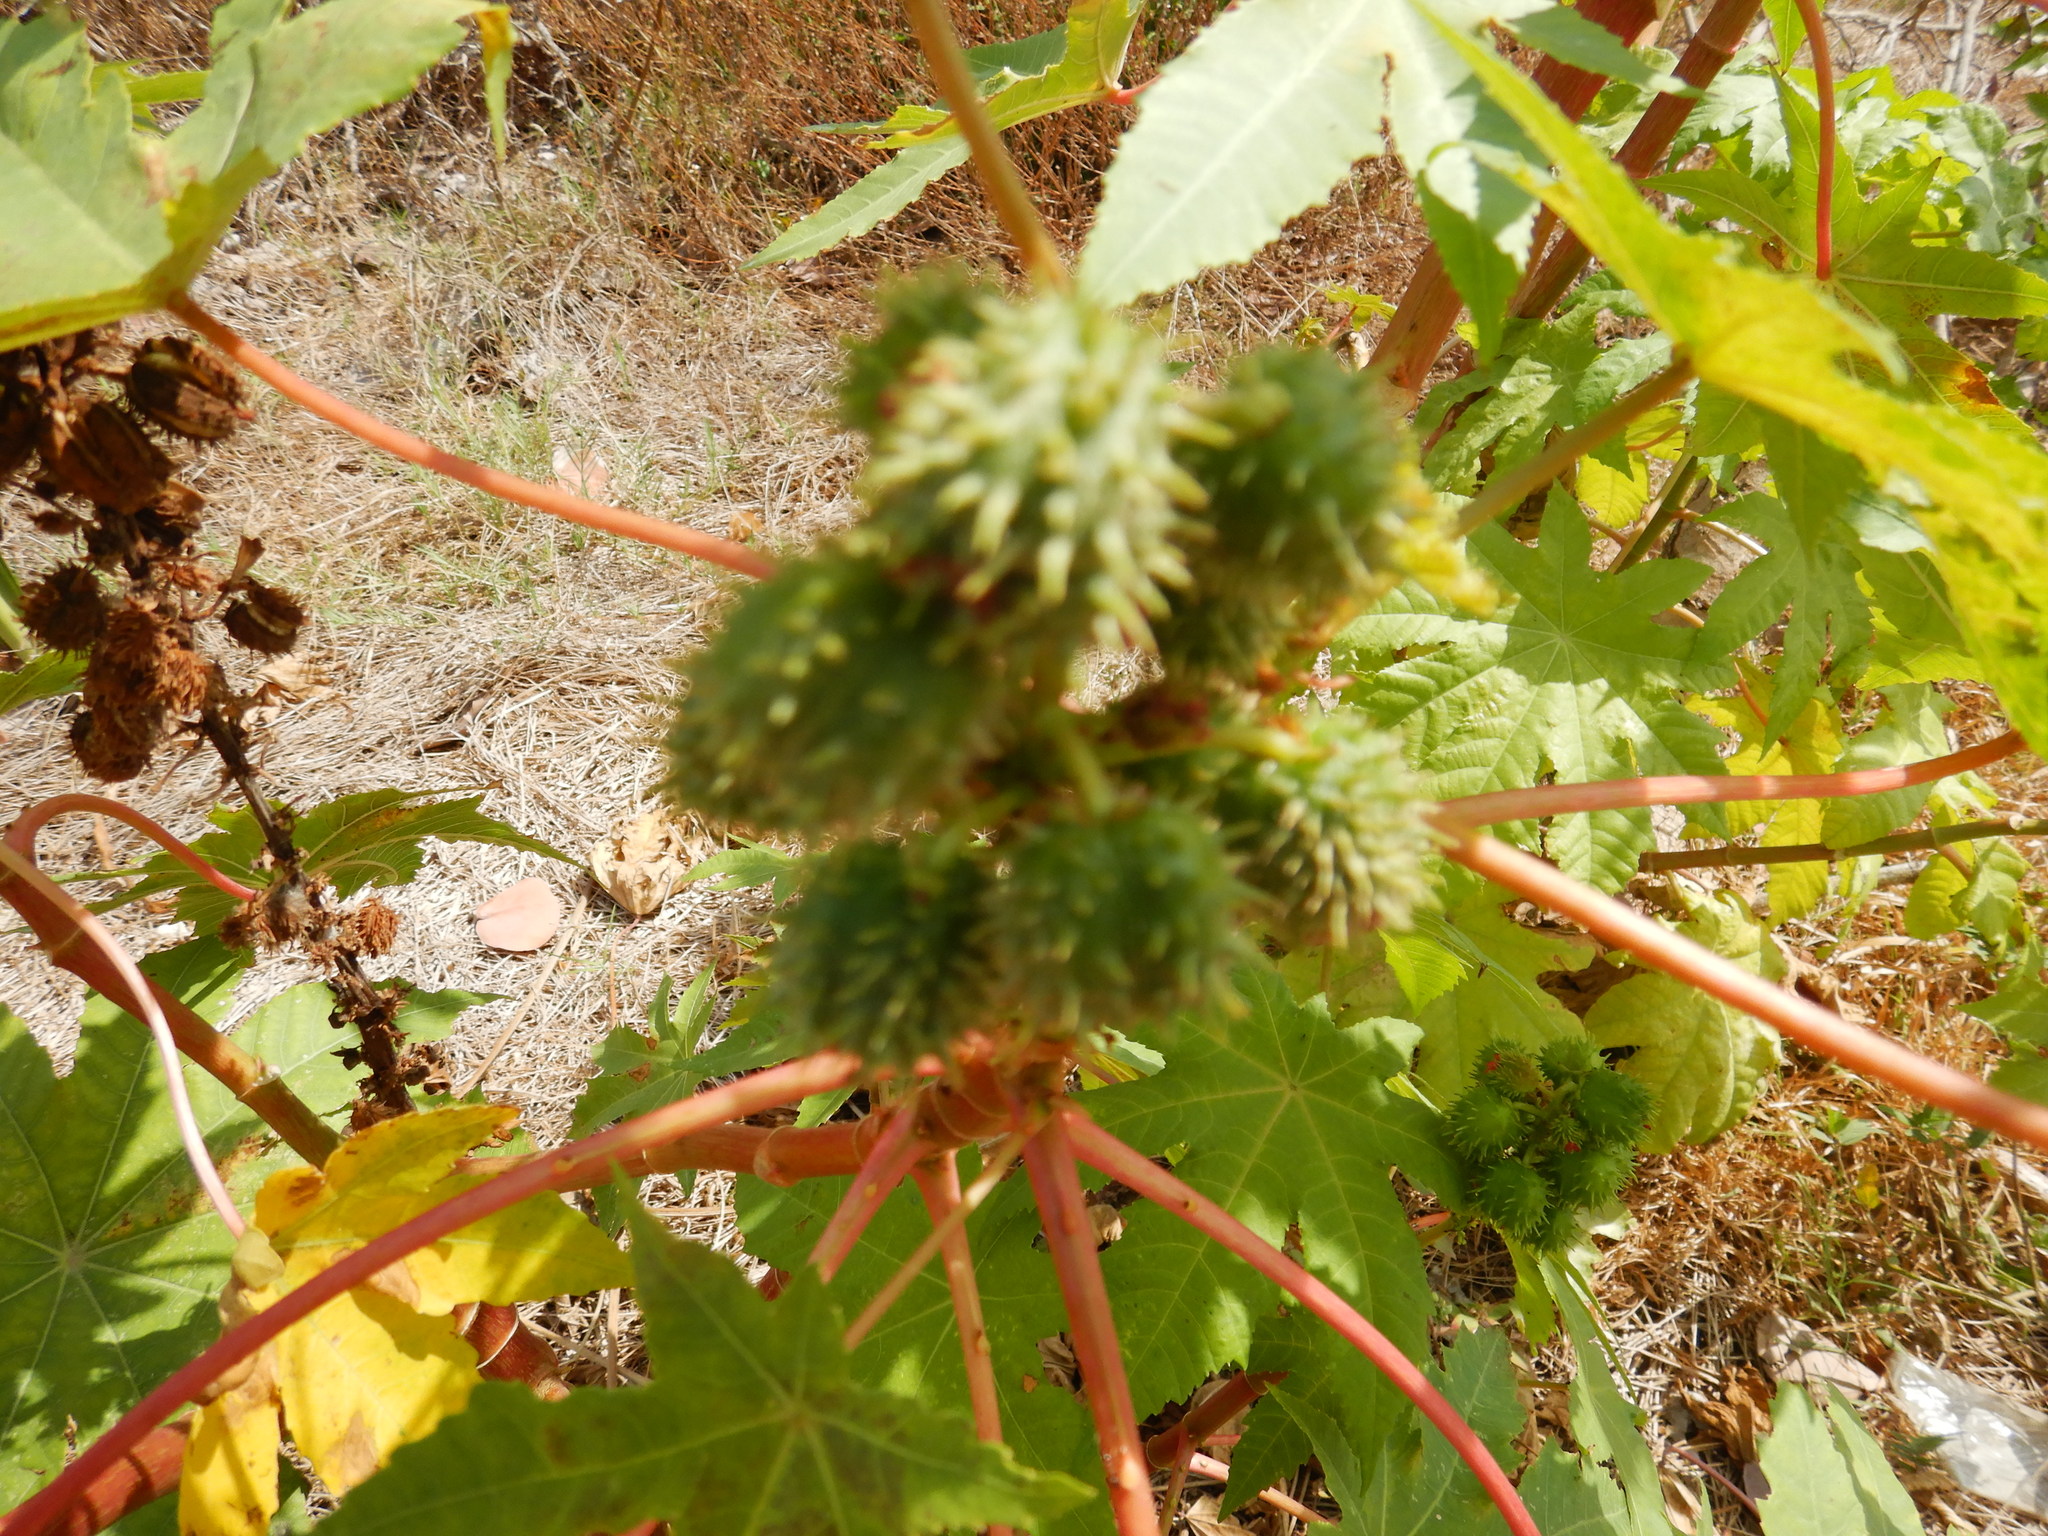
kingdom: Plantae
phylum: Tracheophyta
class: Magnoliopsida
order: Malpighiales
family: Euphorbiaceae
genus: Ricinus
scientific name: Ricinus communis
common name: Castor-oil-plant
